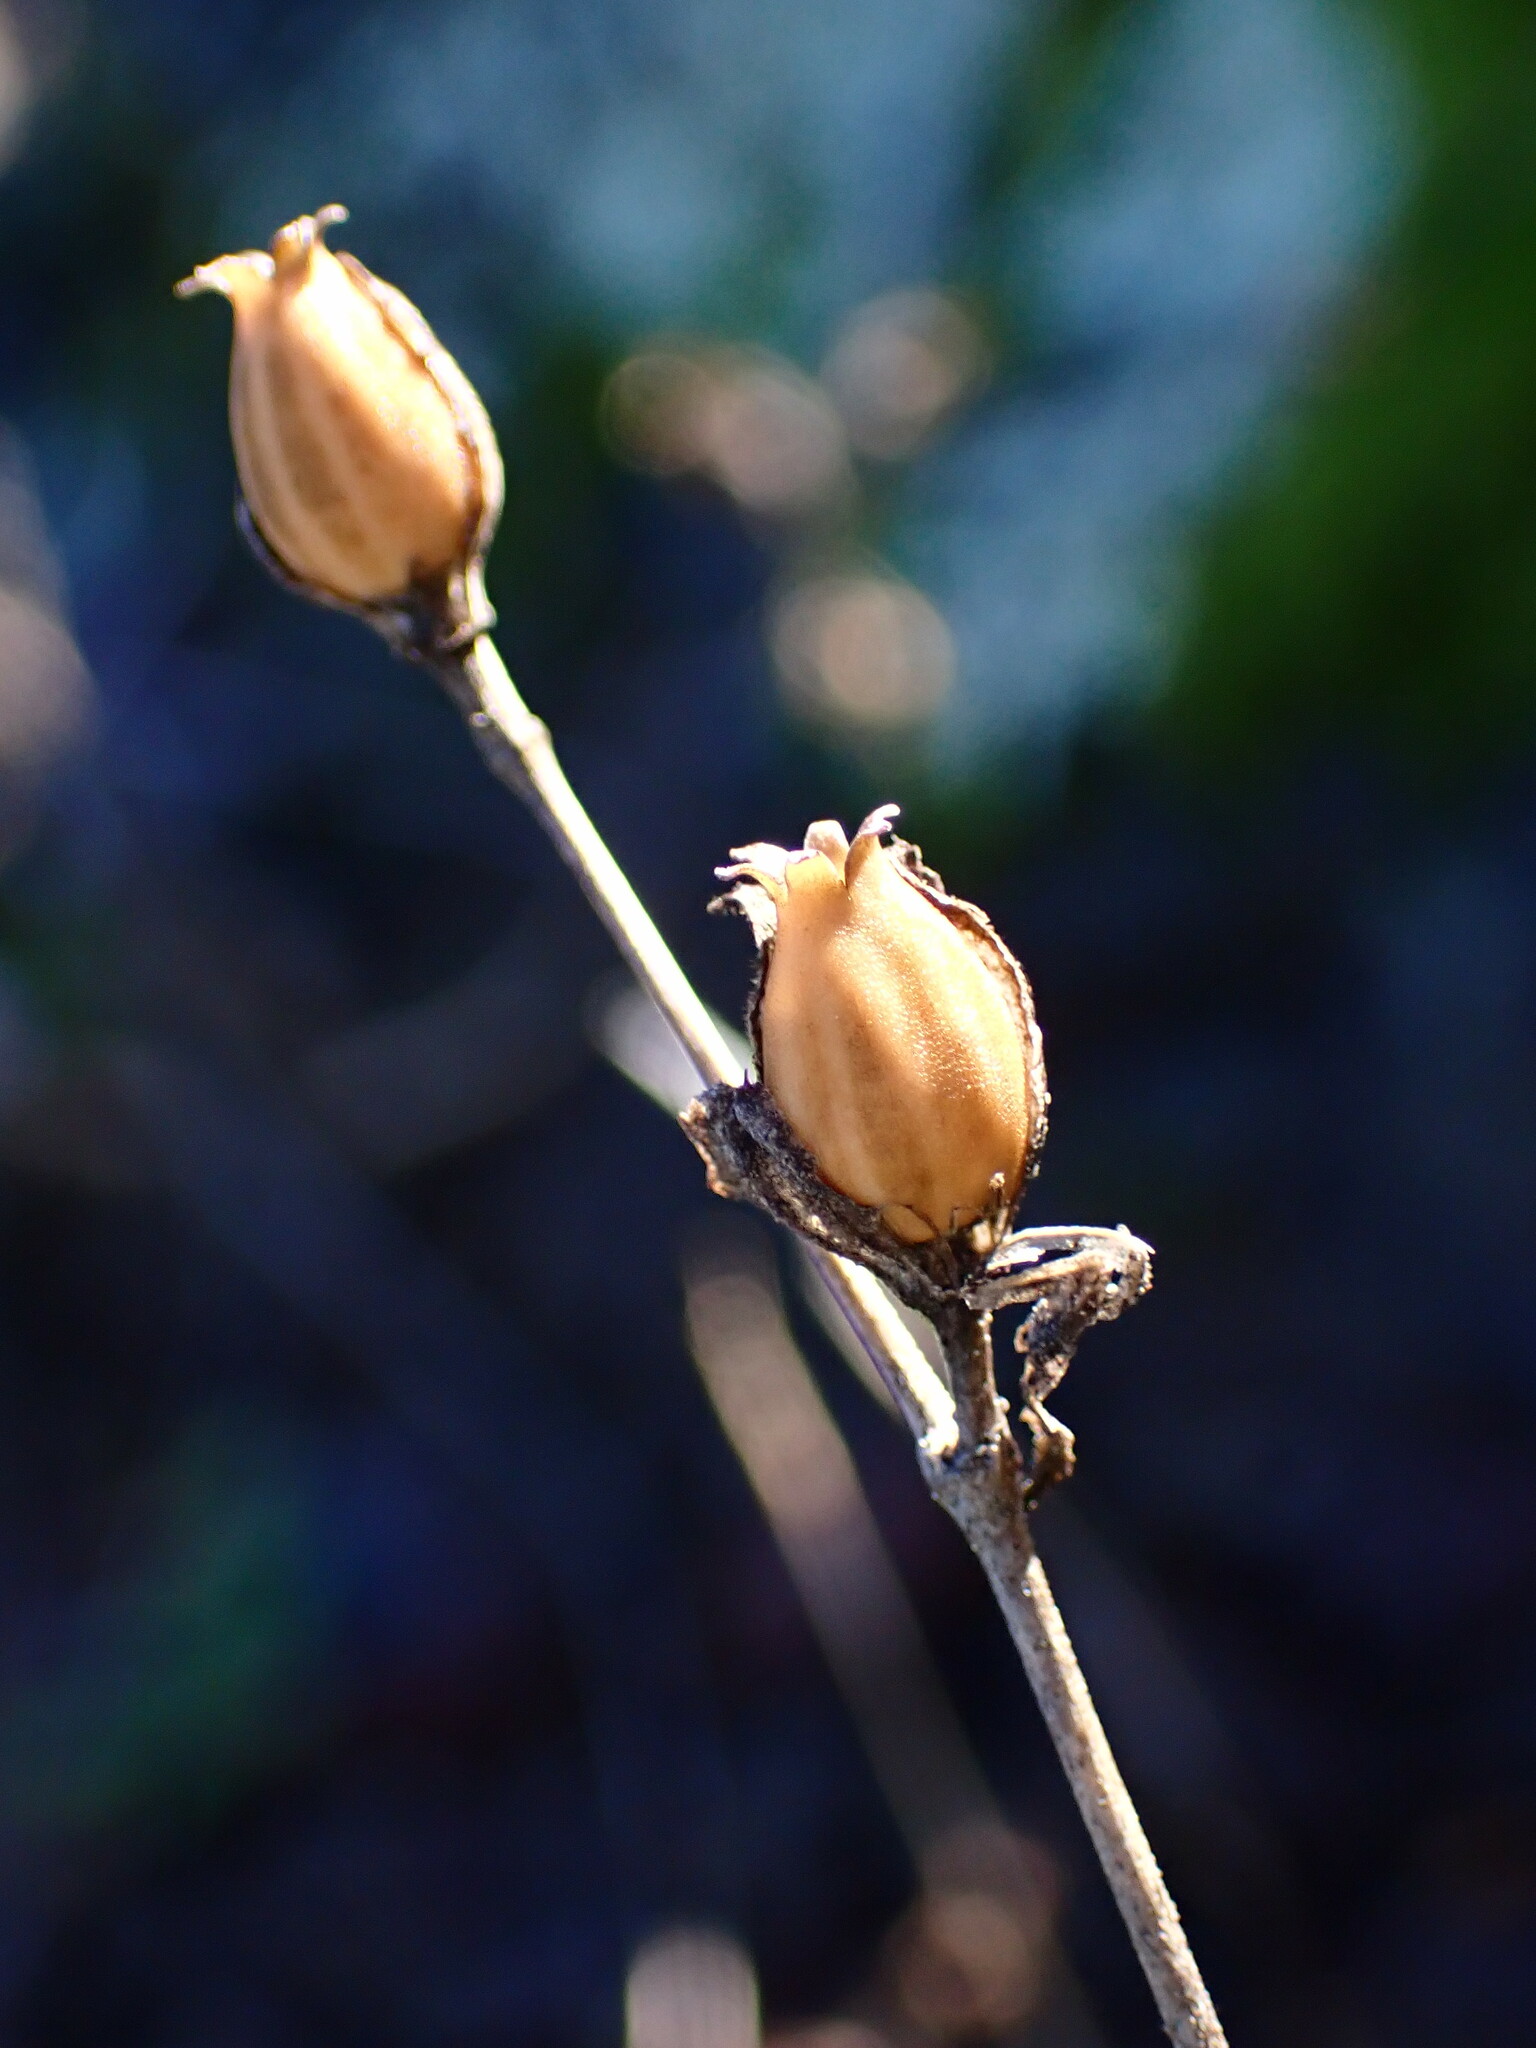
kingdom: Plantae
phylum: Tracheophyta
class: Magnoliopsida
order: Lamiales
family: Scrophulariaceae
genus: Scrophularia
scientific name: Scrophularia californica
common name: California figwort
